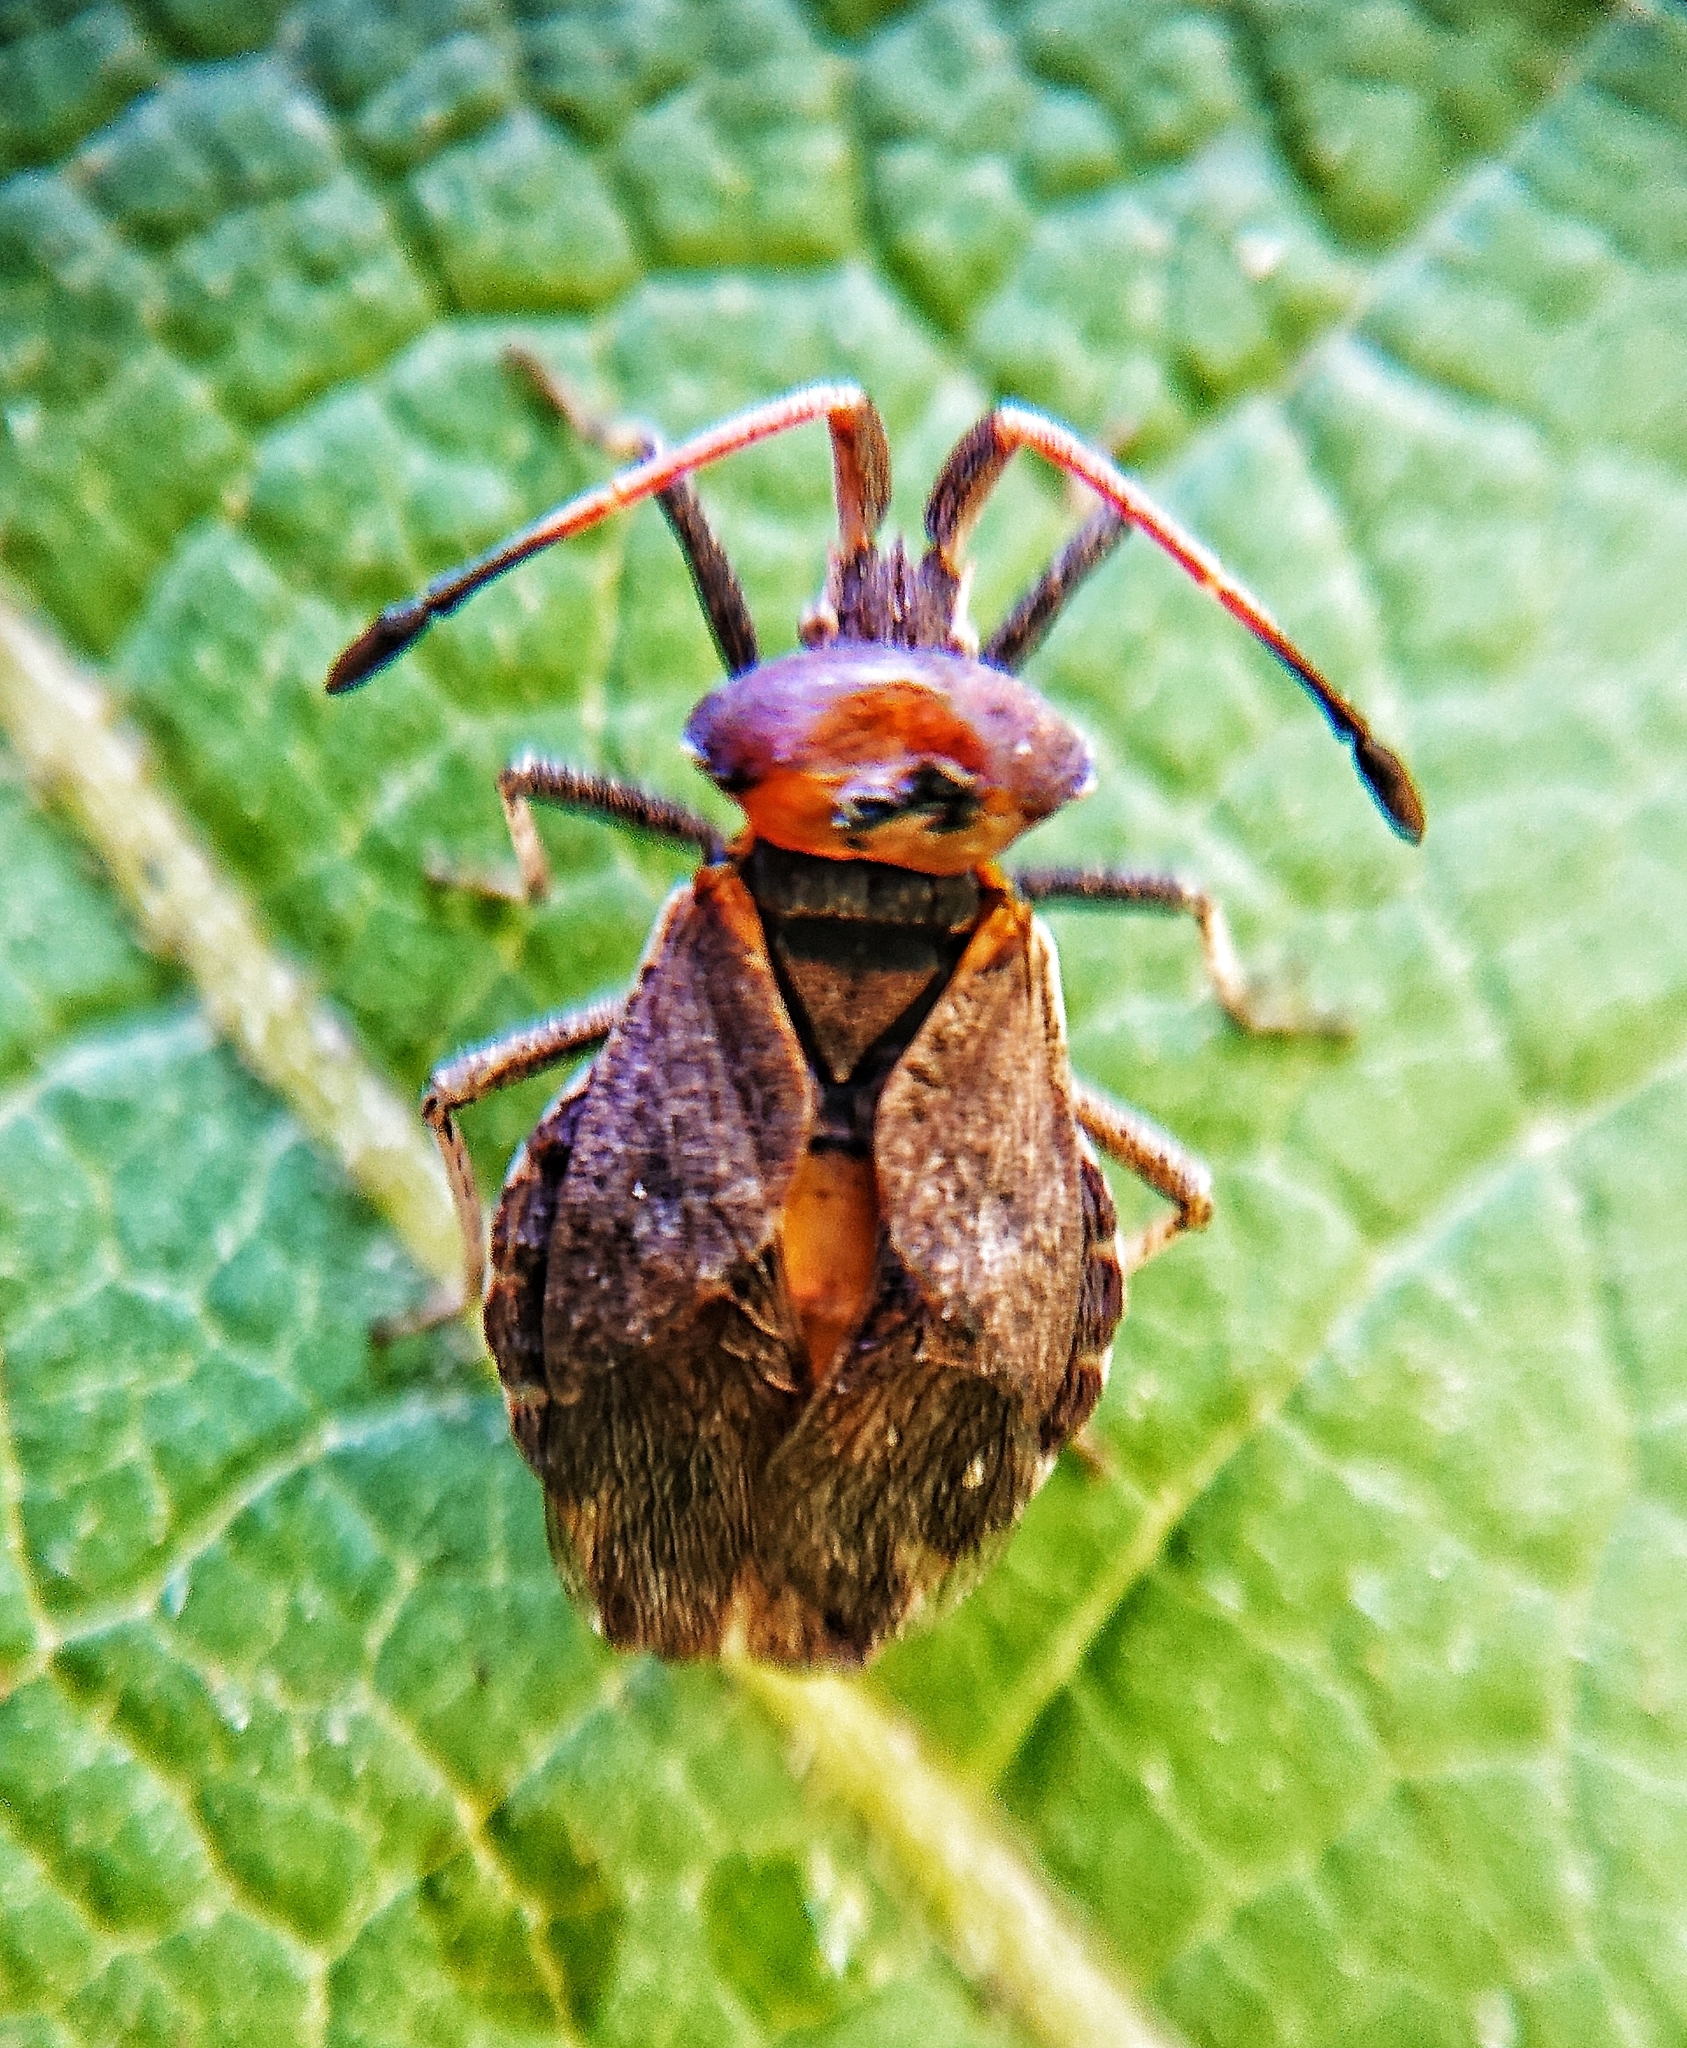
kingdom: Animalia
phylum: Arthropoda
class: Insecta
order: Hemiptera
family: Coreidae
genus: Enoplops
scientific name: Enoplops scapha
